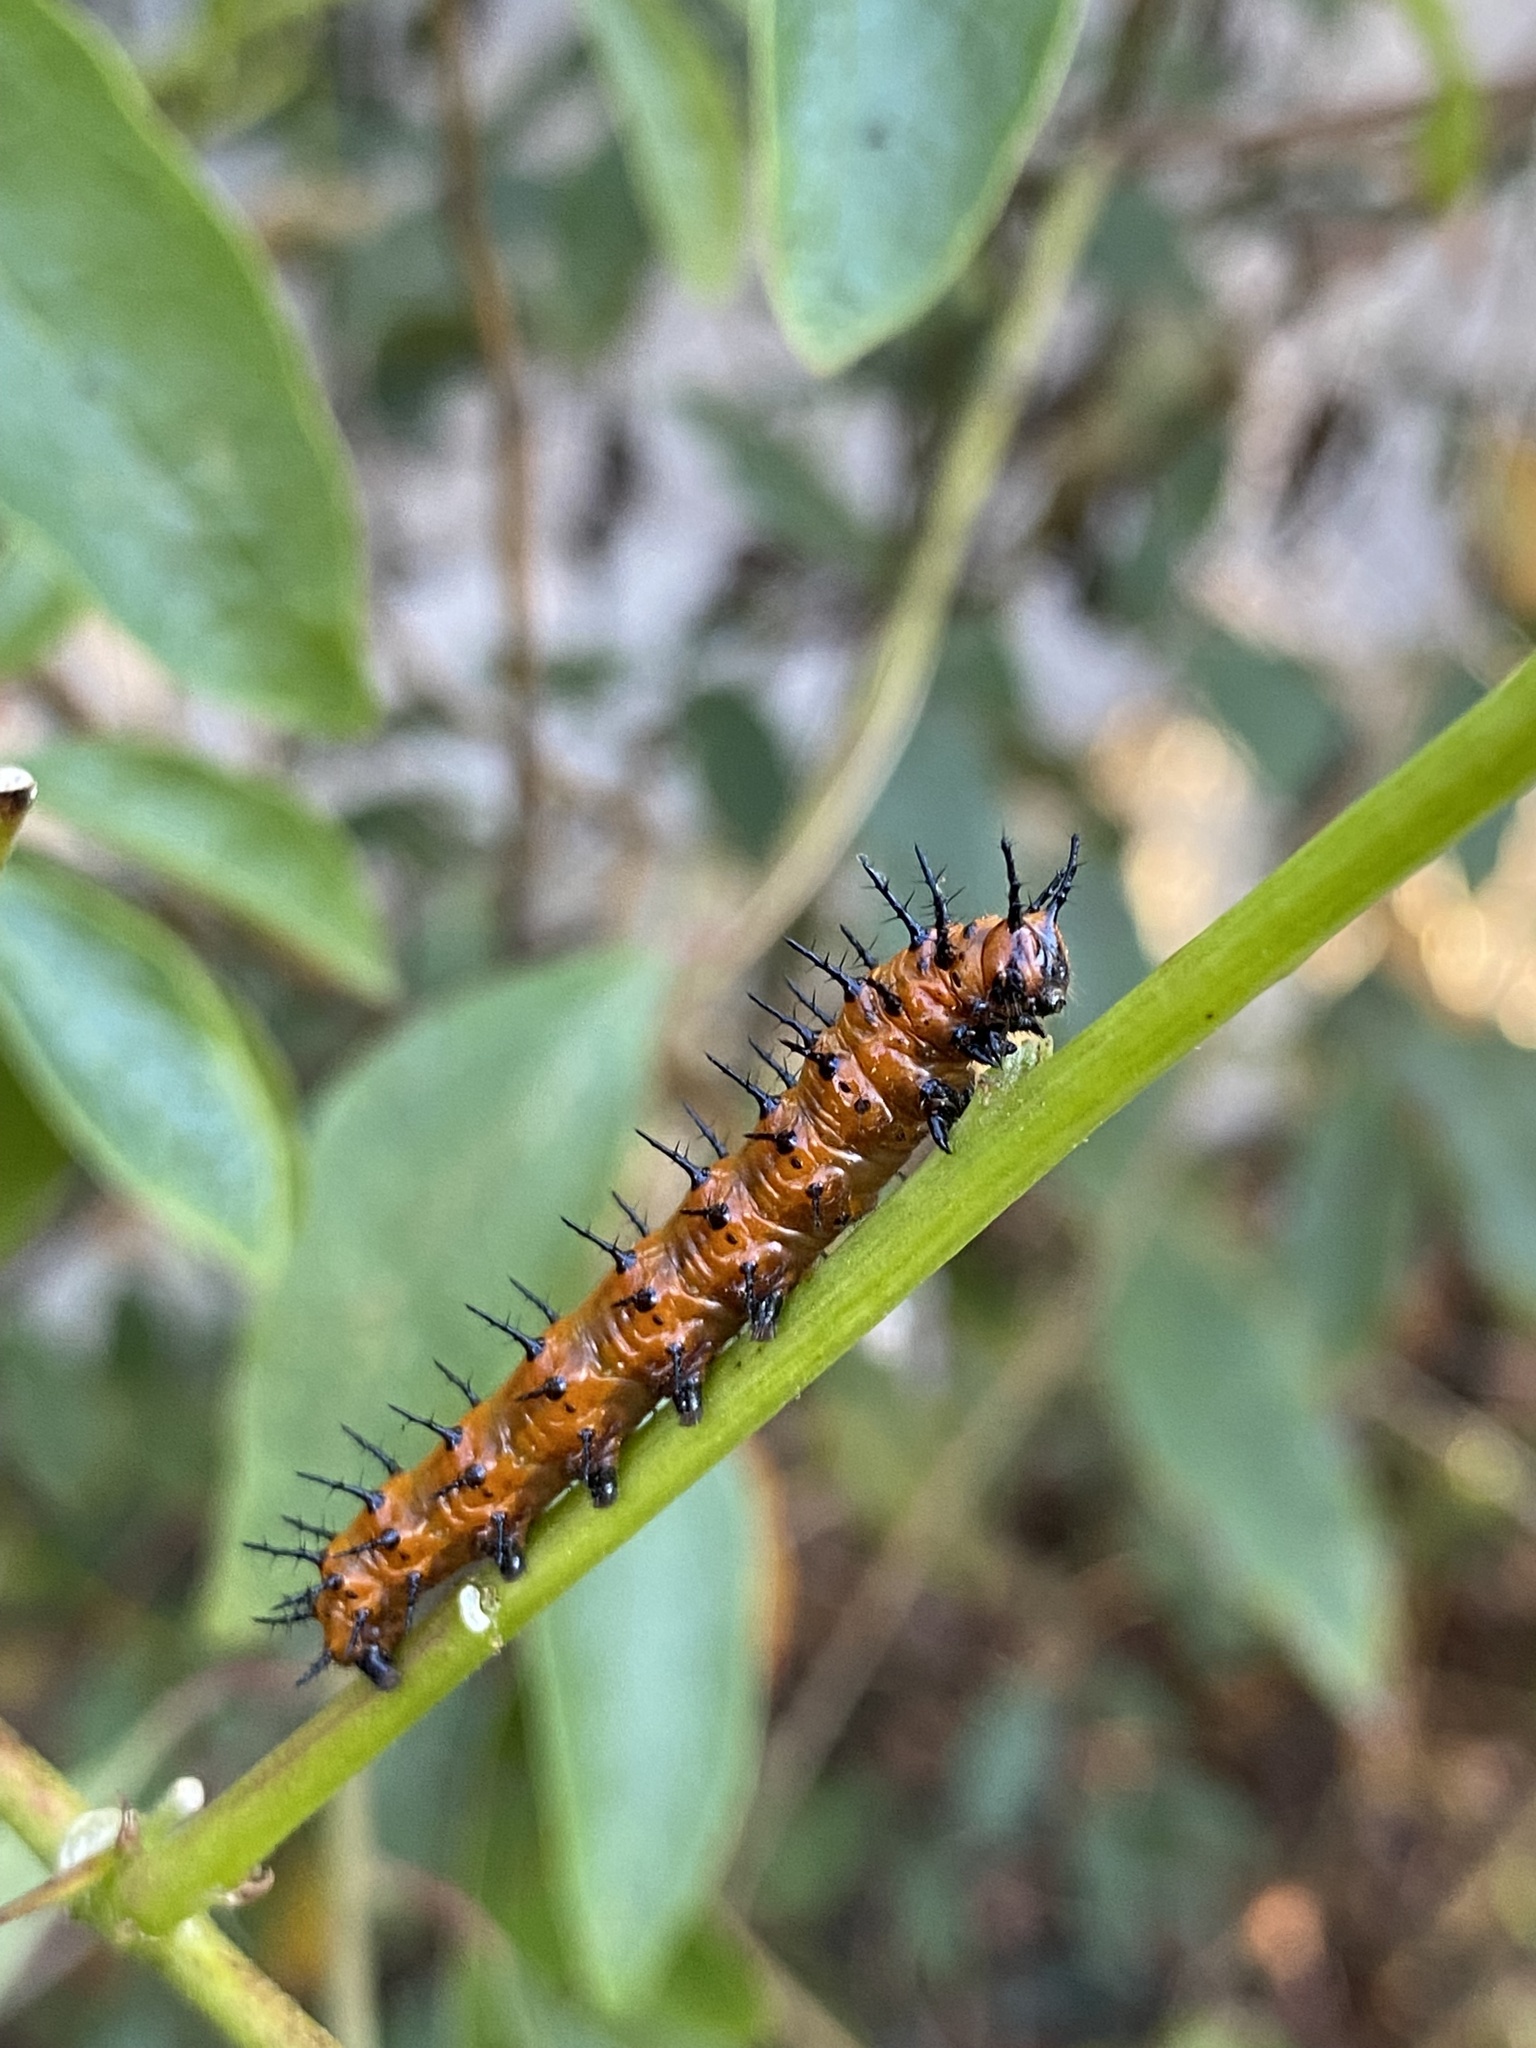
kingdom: Animalia
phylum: Arthropoda
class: Insecta
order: Lepidoptera
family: Nymphalidae
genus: Dione
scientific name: Dione vanillae
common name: Gulf fritillary
